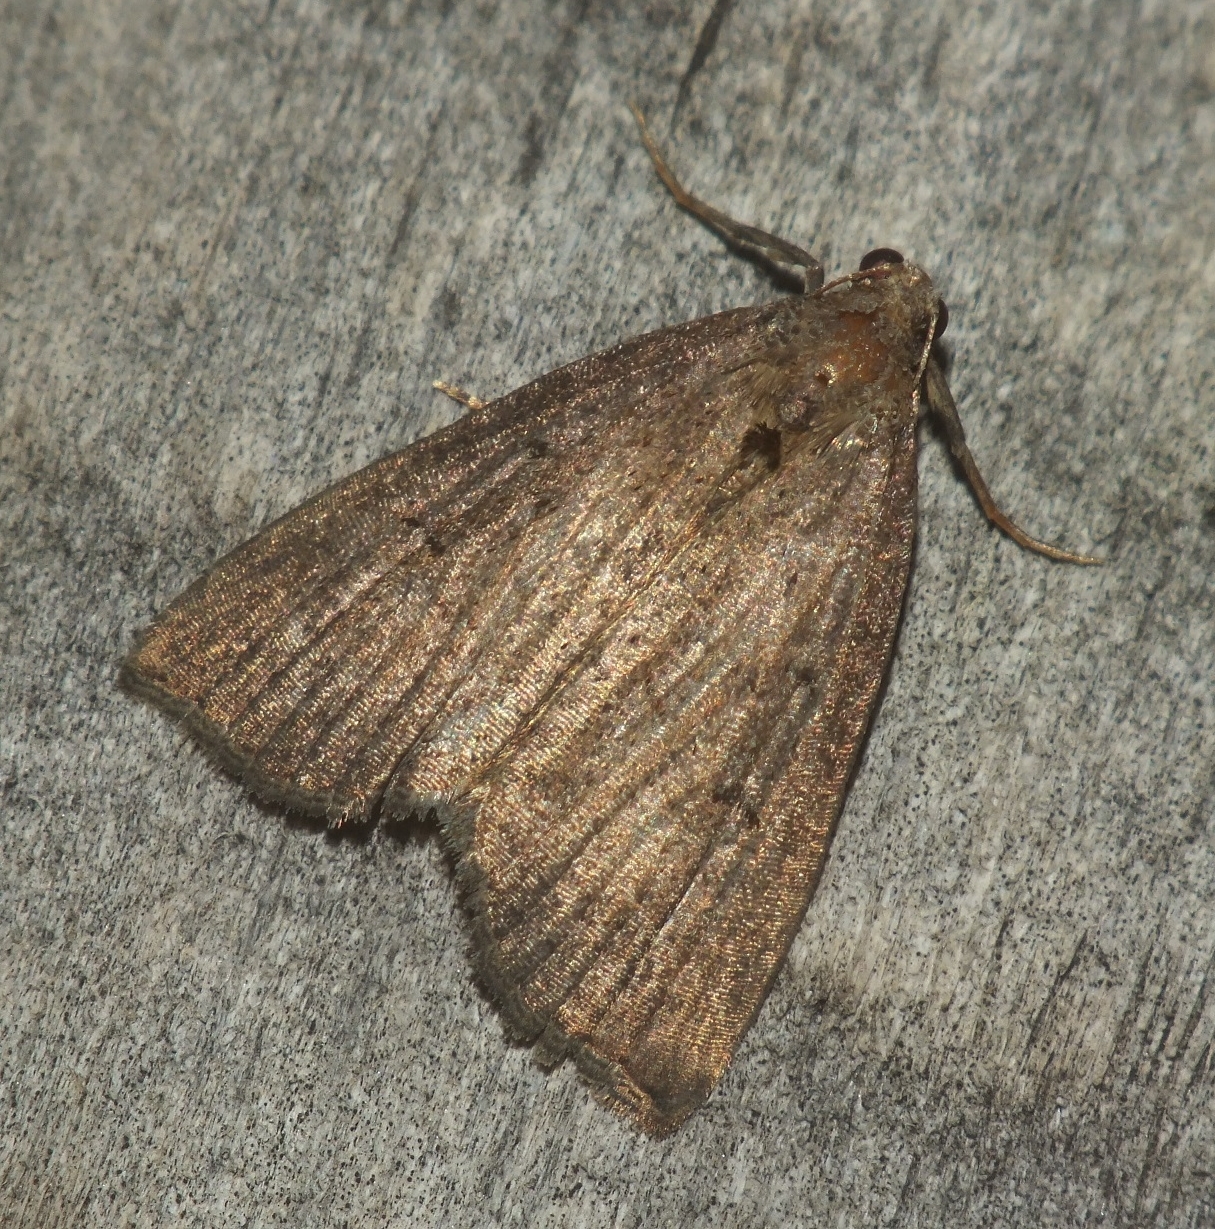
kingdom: Animalia
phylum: Arthropoda
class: Insecta
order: Lepidoptera
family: Erebidae
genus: Hypena
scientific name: Hypena rostralis
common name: Buttoned snout
